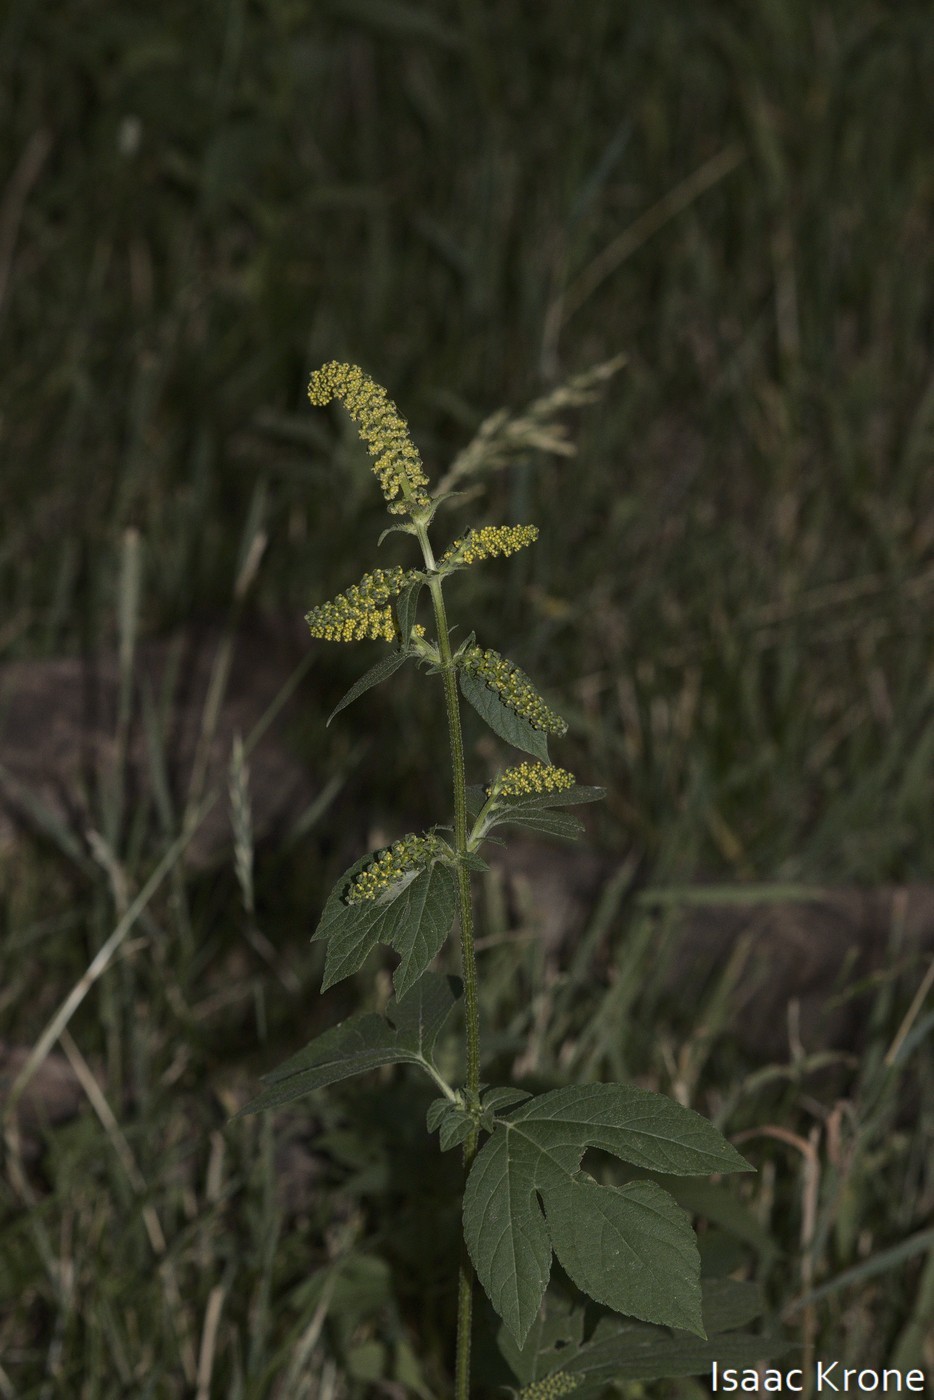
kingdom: Plantae
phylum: Tracheophyta
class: Magnoliopsida
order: Asterales
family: Asteraceae
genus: Ambrosia
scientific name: Ambrosia trifida
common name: Giant ragweed
